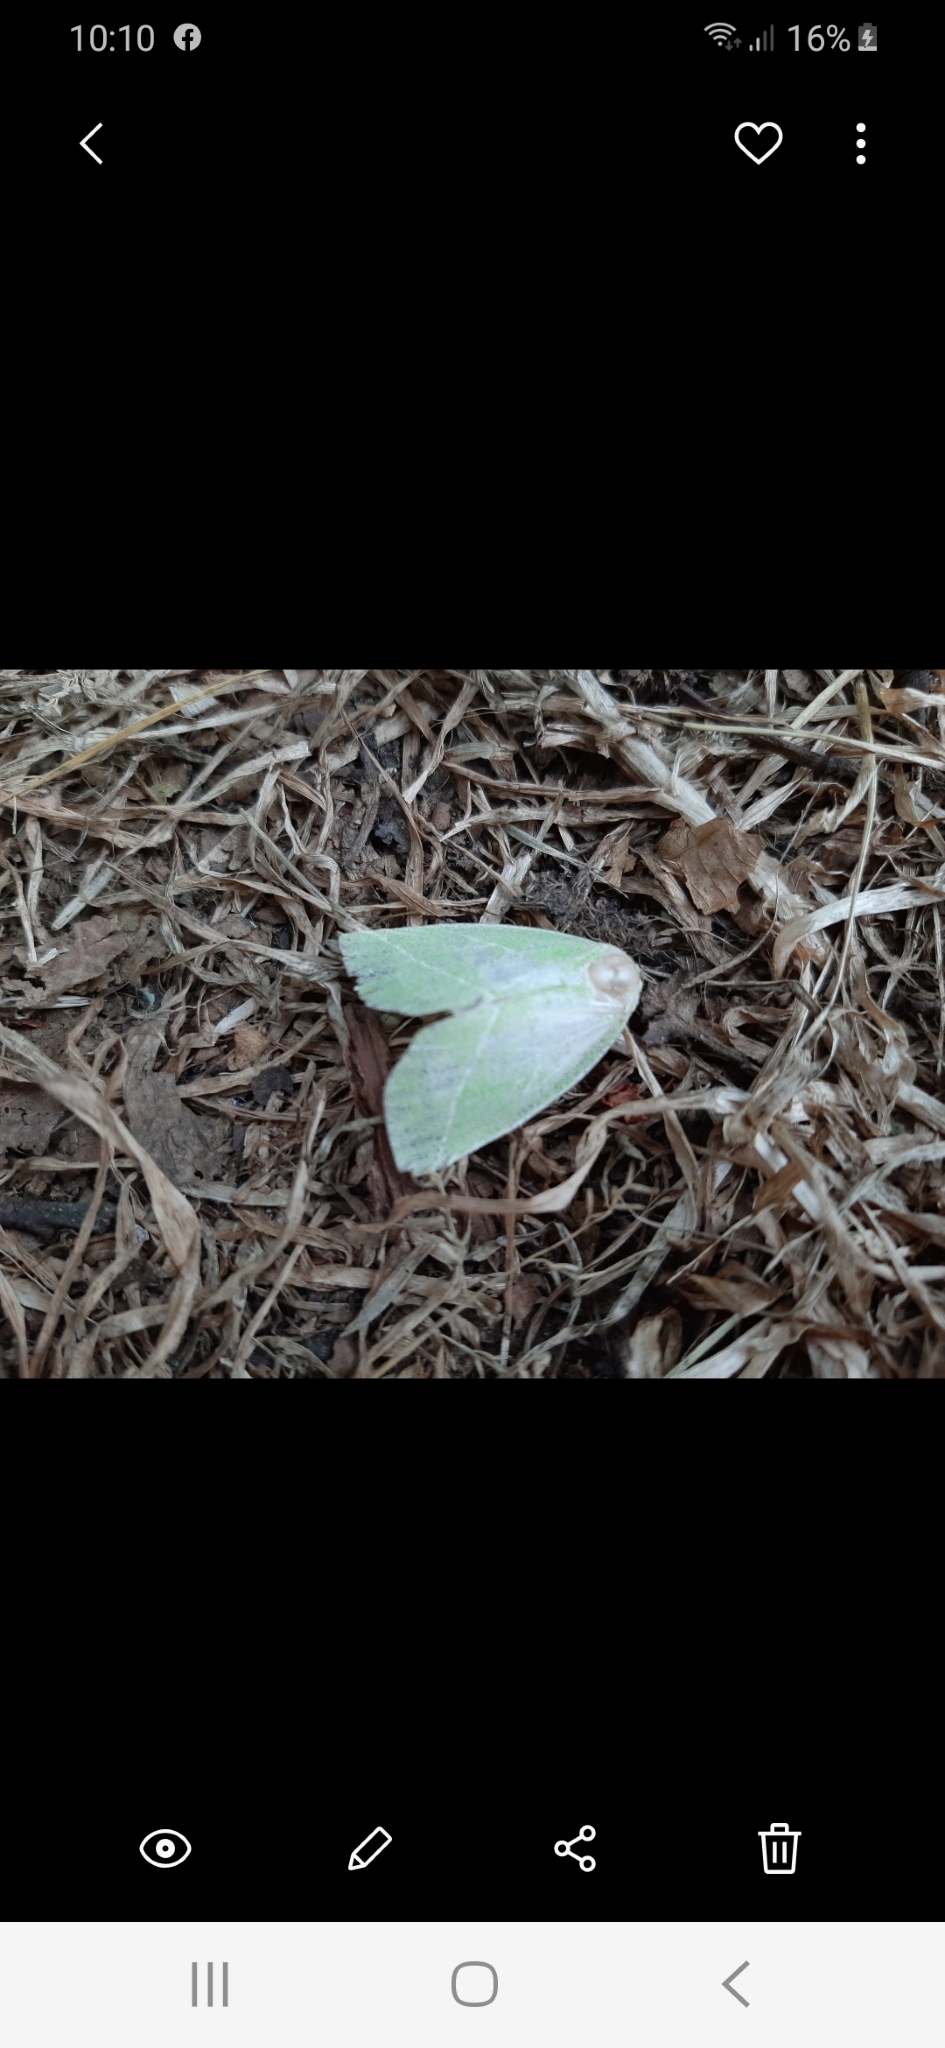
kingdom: Animalia
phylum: Arthropoda
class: Insecta
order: Lepidoptera
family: Nolidae
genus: Pseudoips
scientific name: Pseudoips prasinana
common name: Green silver-lines
